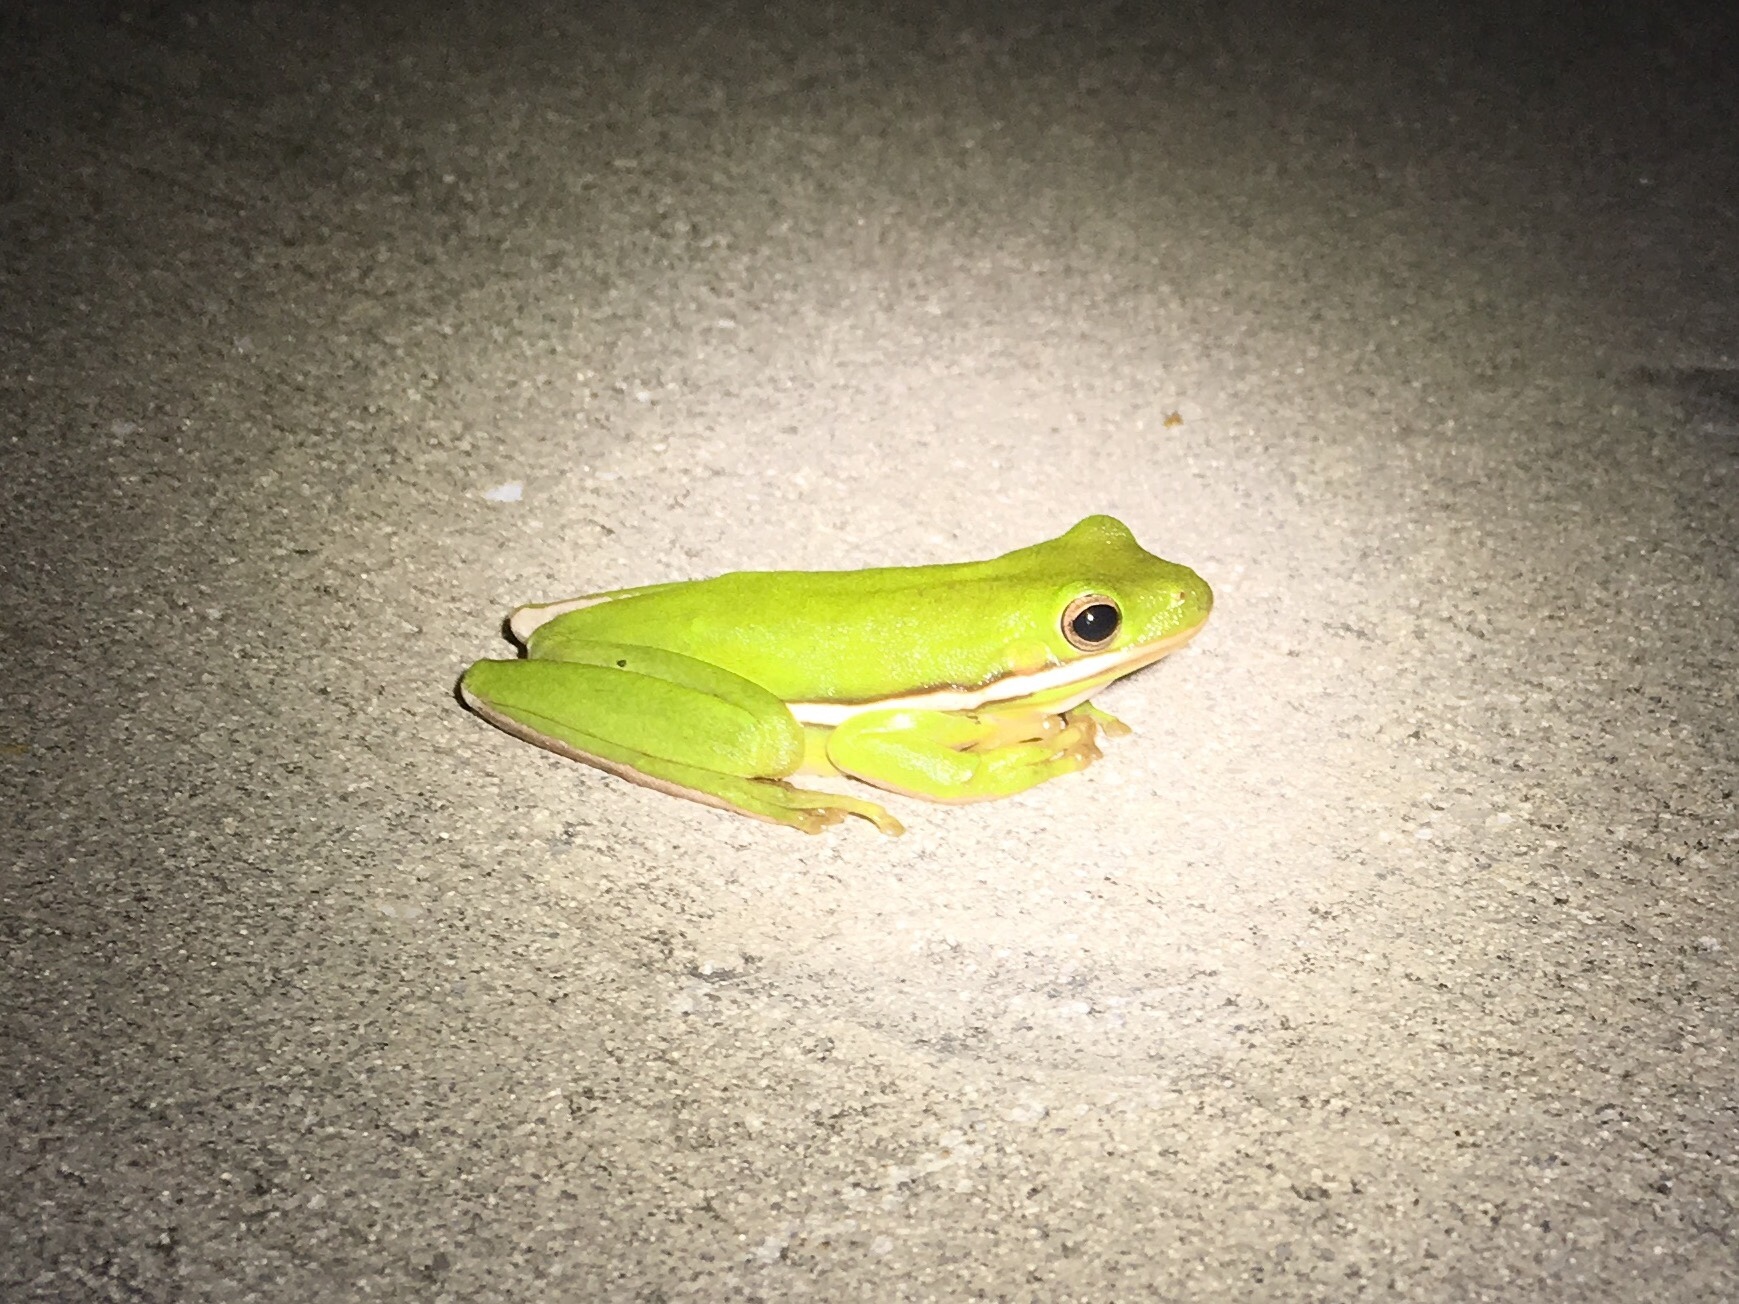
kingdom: Animalia
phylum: Chordata
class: Amphibia
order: Anura
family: Hylidae
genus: Dryophytes
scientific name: Dryophytes cinereus
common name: Green treefrog
